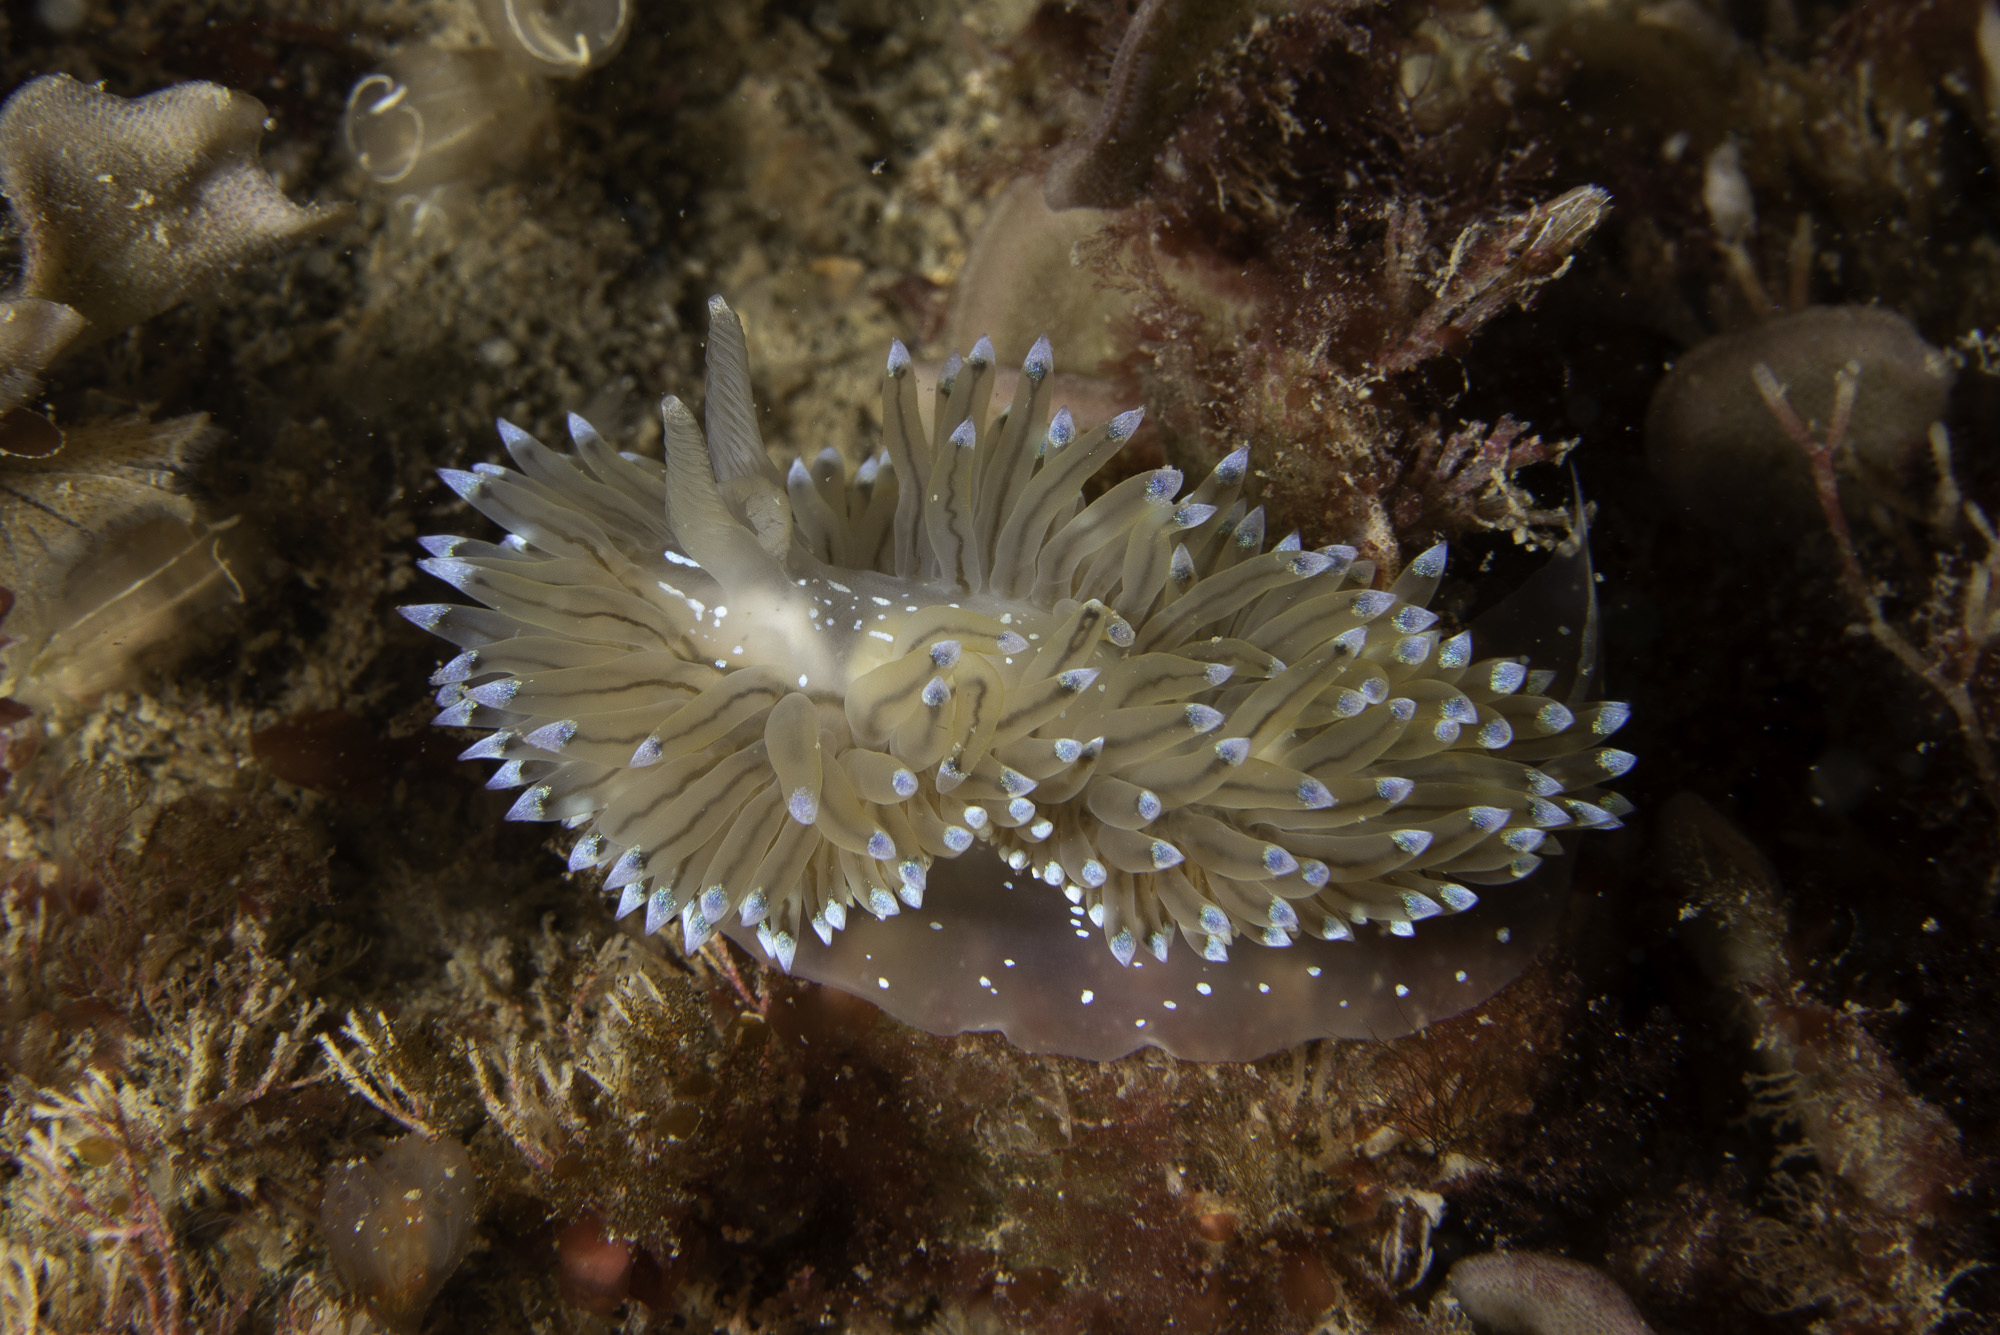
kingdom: Animalia
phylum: Mollusca
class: Gastropoda
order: Nudibranchia
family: Janolidae
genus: Antiopella
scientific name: Antiopella cristata
